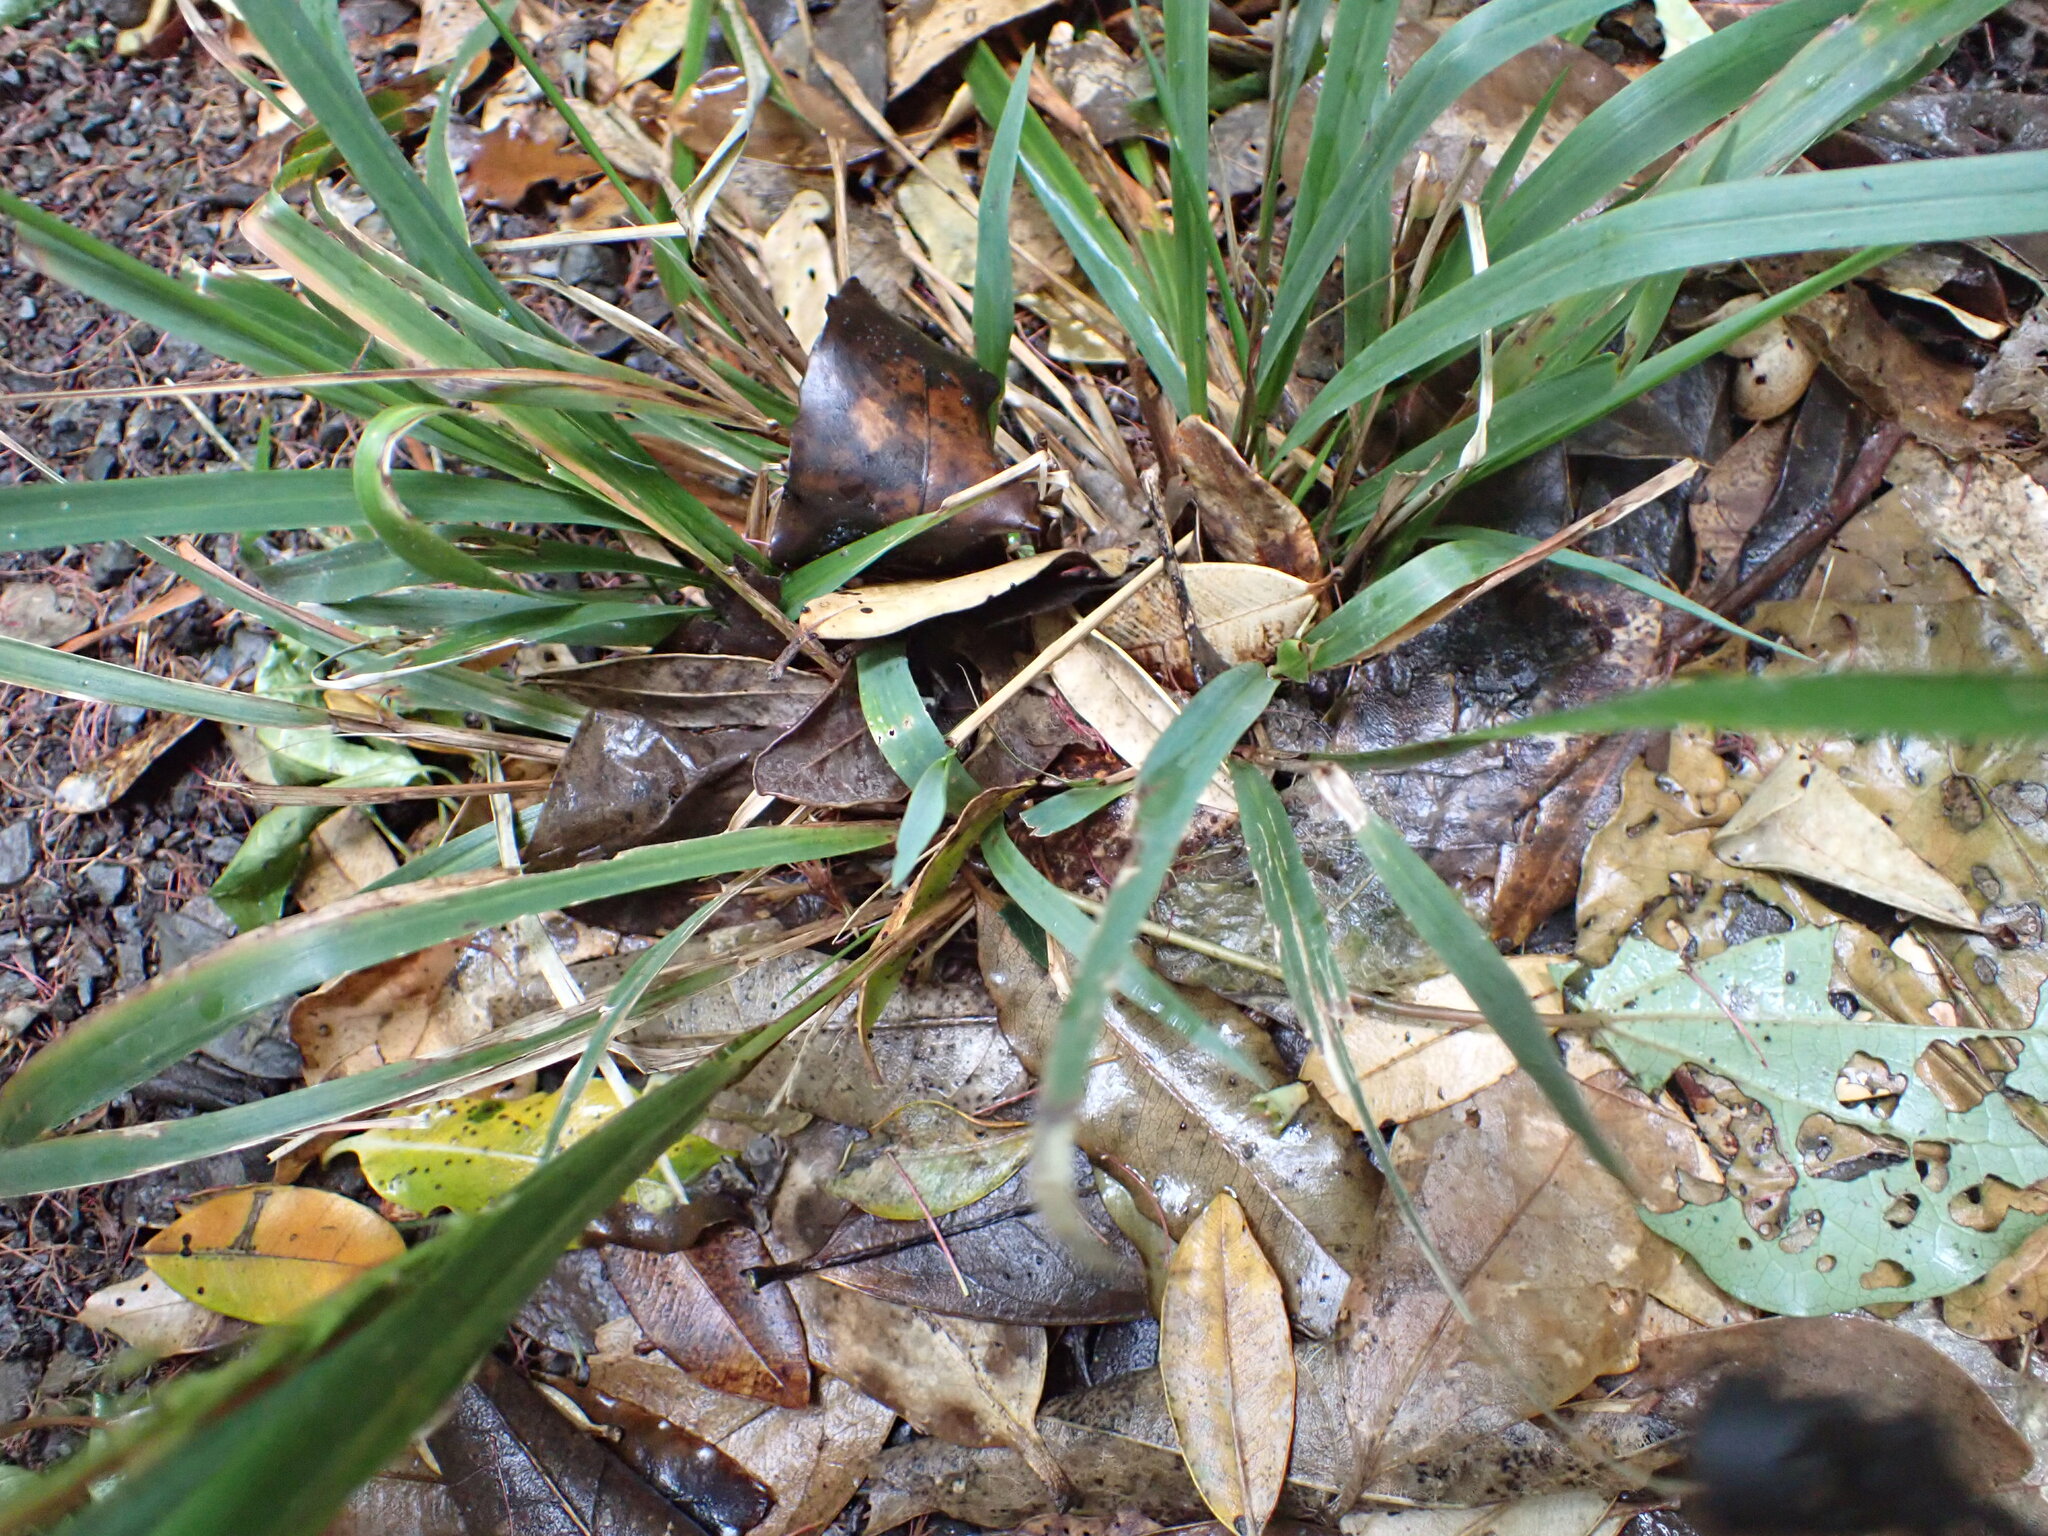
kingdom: Plantae
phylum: Tracheophyta
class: Liliopsida
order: Poales
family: Poaceae
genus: Ehrharta
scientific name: Ehrharta diplax
